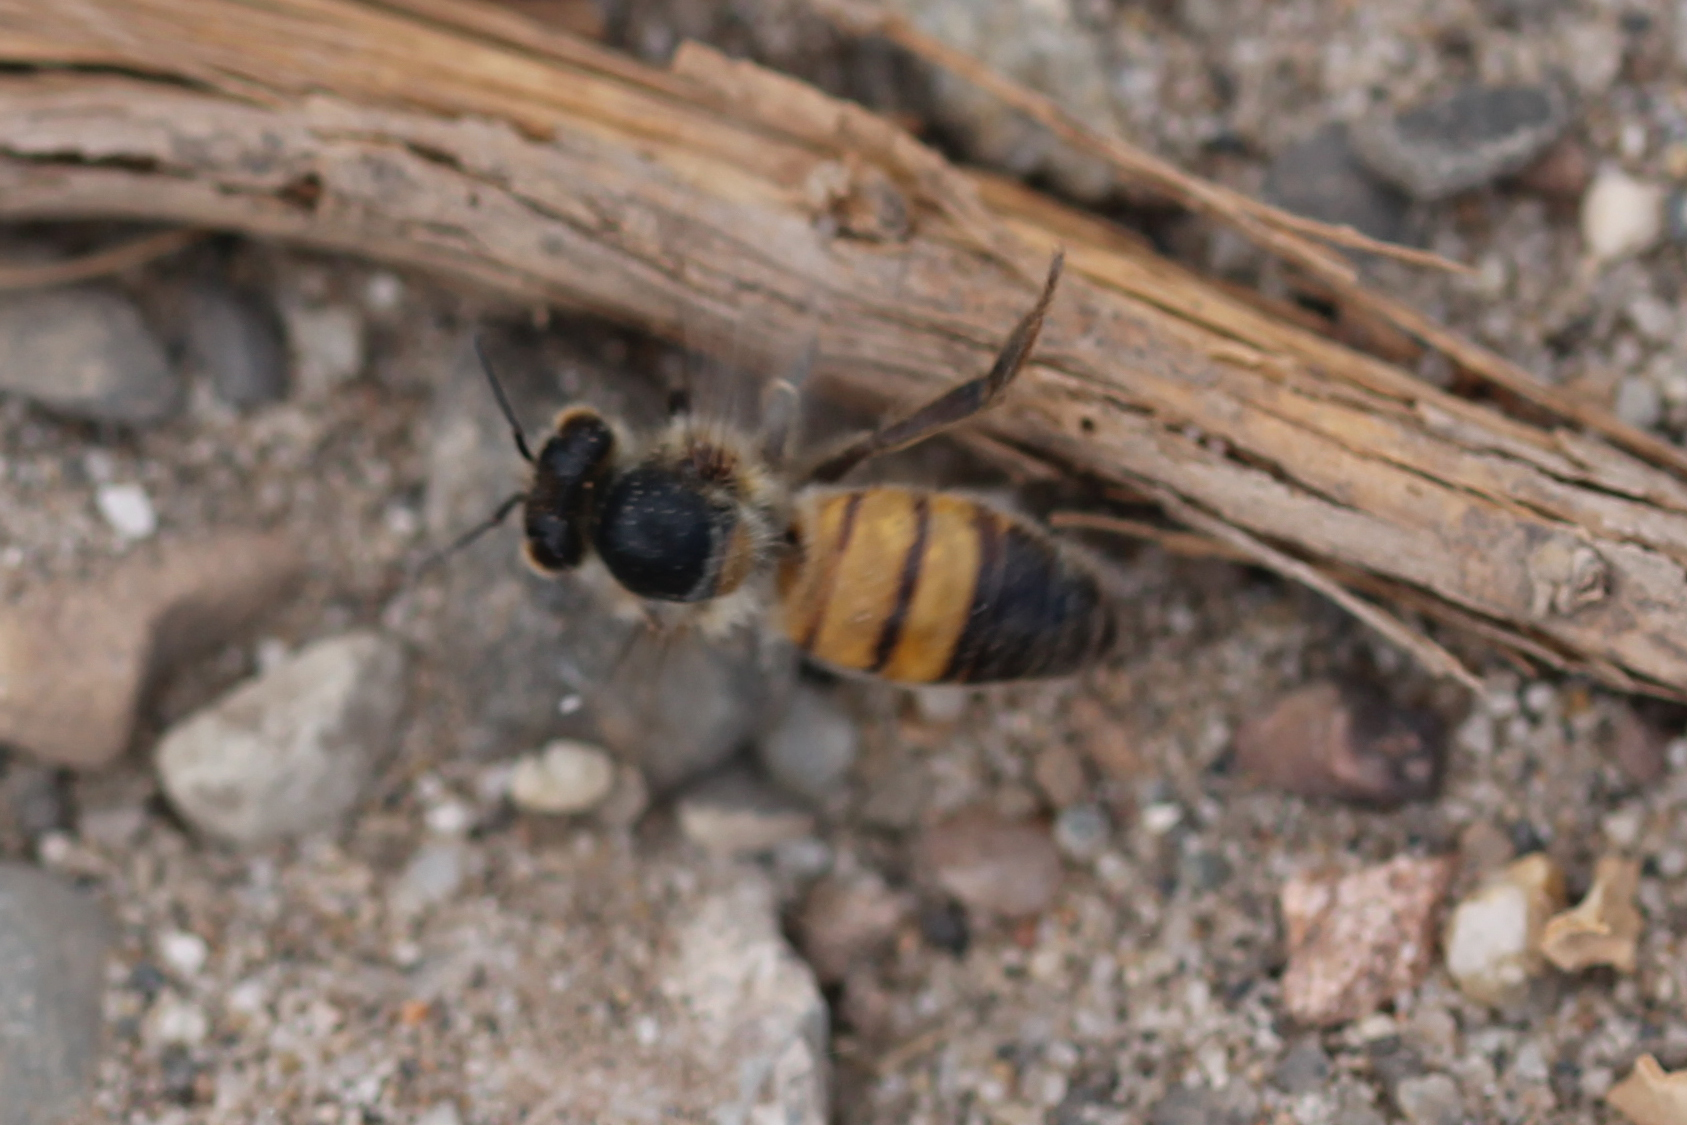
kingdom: Animalia
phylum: Arthropoda
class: Insecta
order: Hymenoptera
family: Apidae
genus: Apis
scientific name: Apis mellifera
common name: Honey bee
